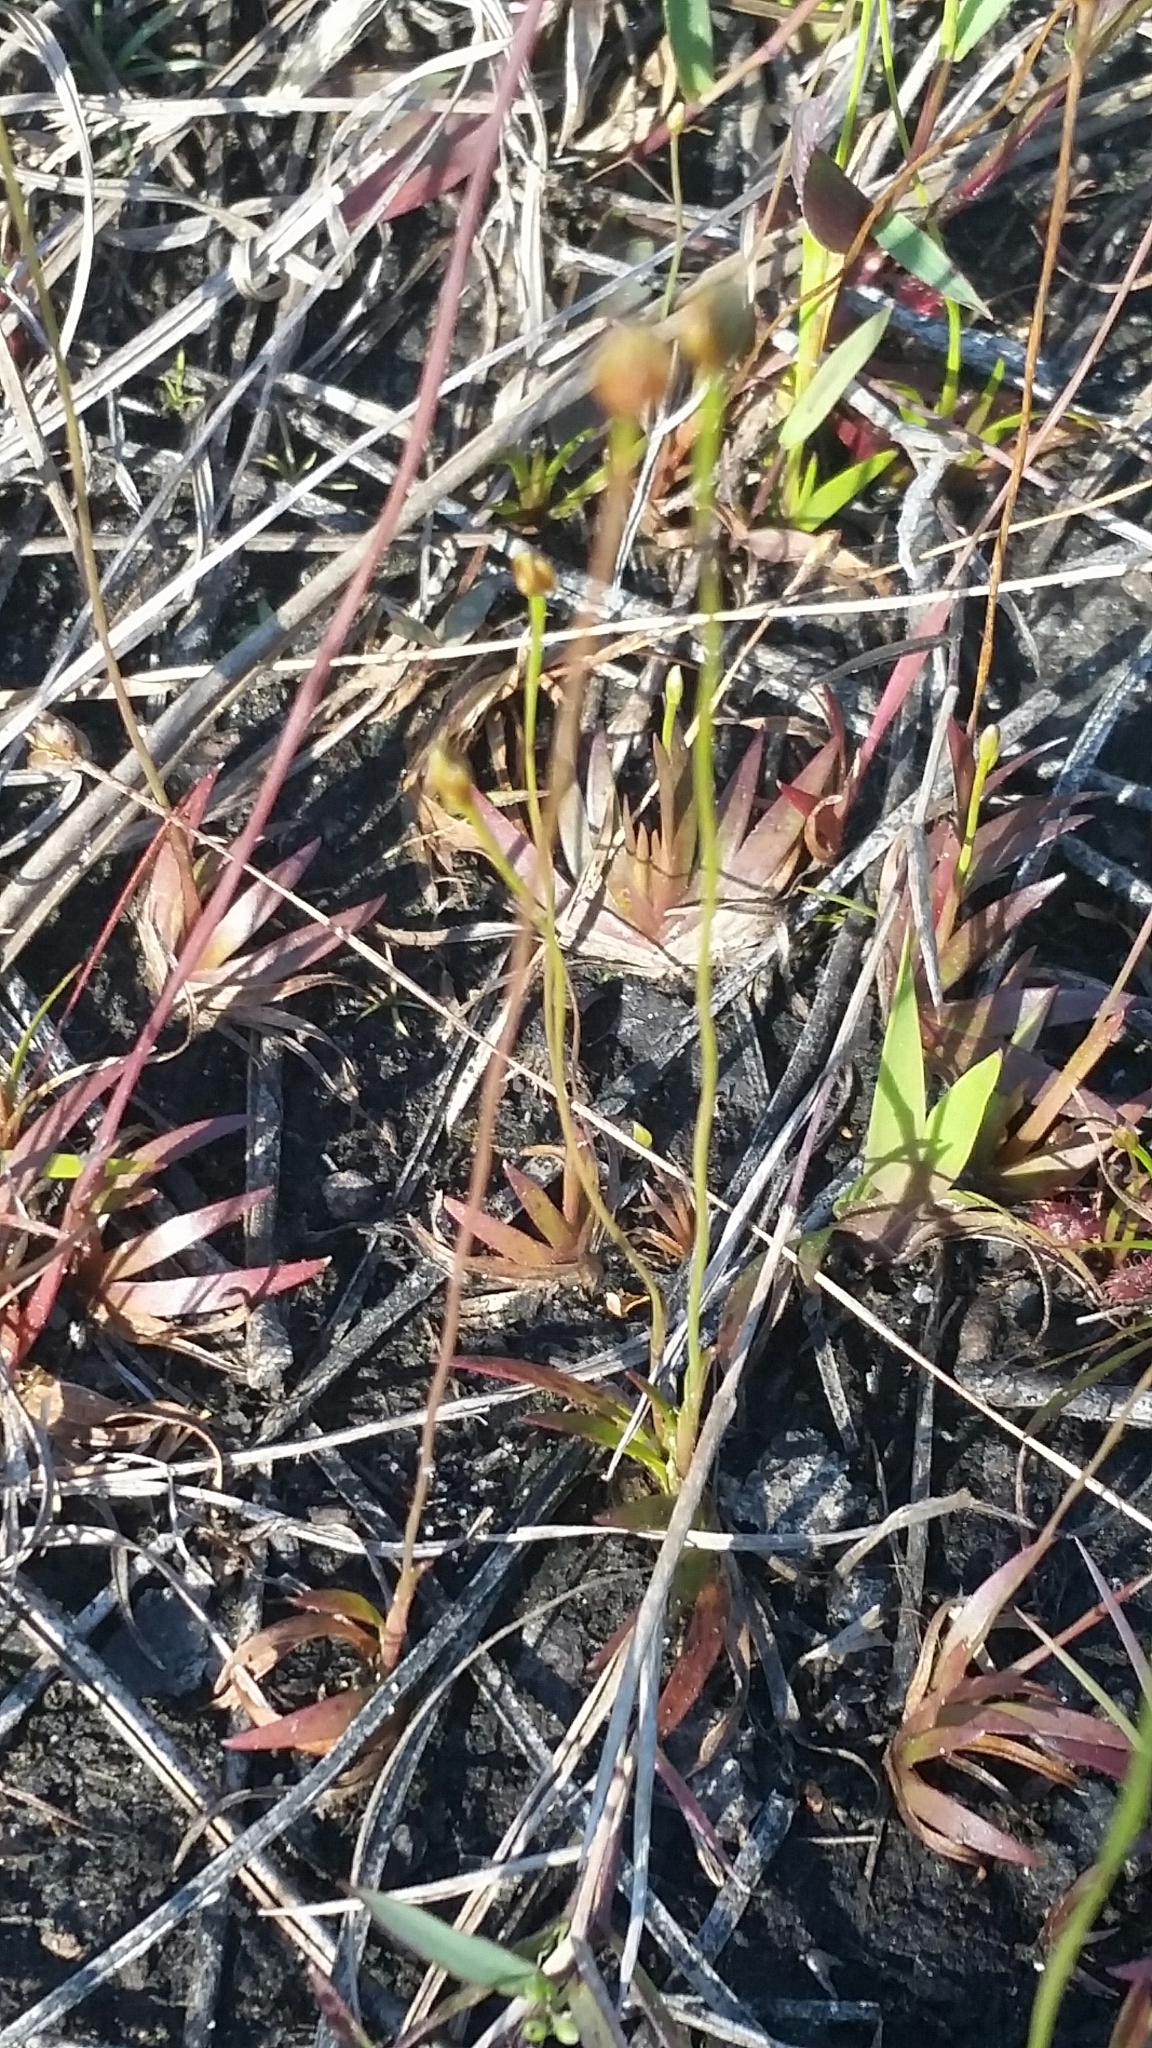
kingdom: Plantae
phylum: Tracheophyta
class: Liliopsida
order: Poales
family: Xyridaceae
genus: Xyris
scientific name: Xyris flabelliformis
